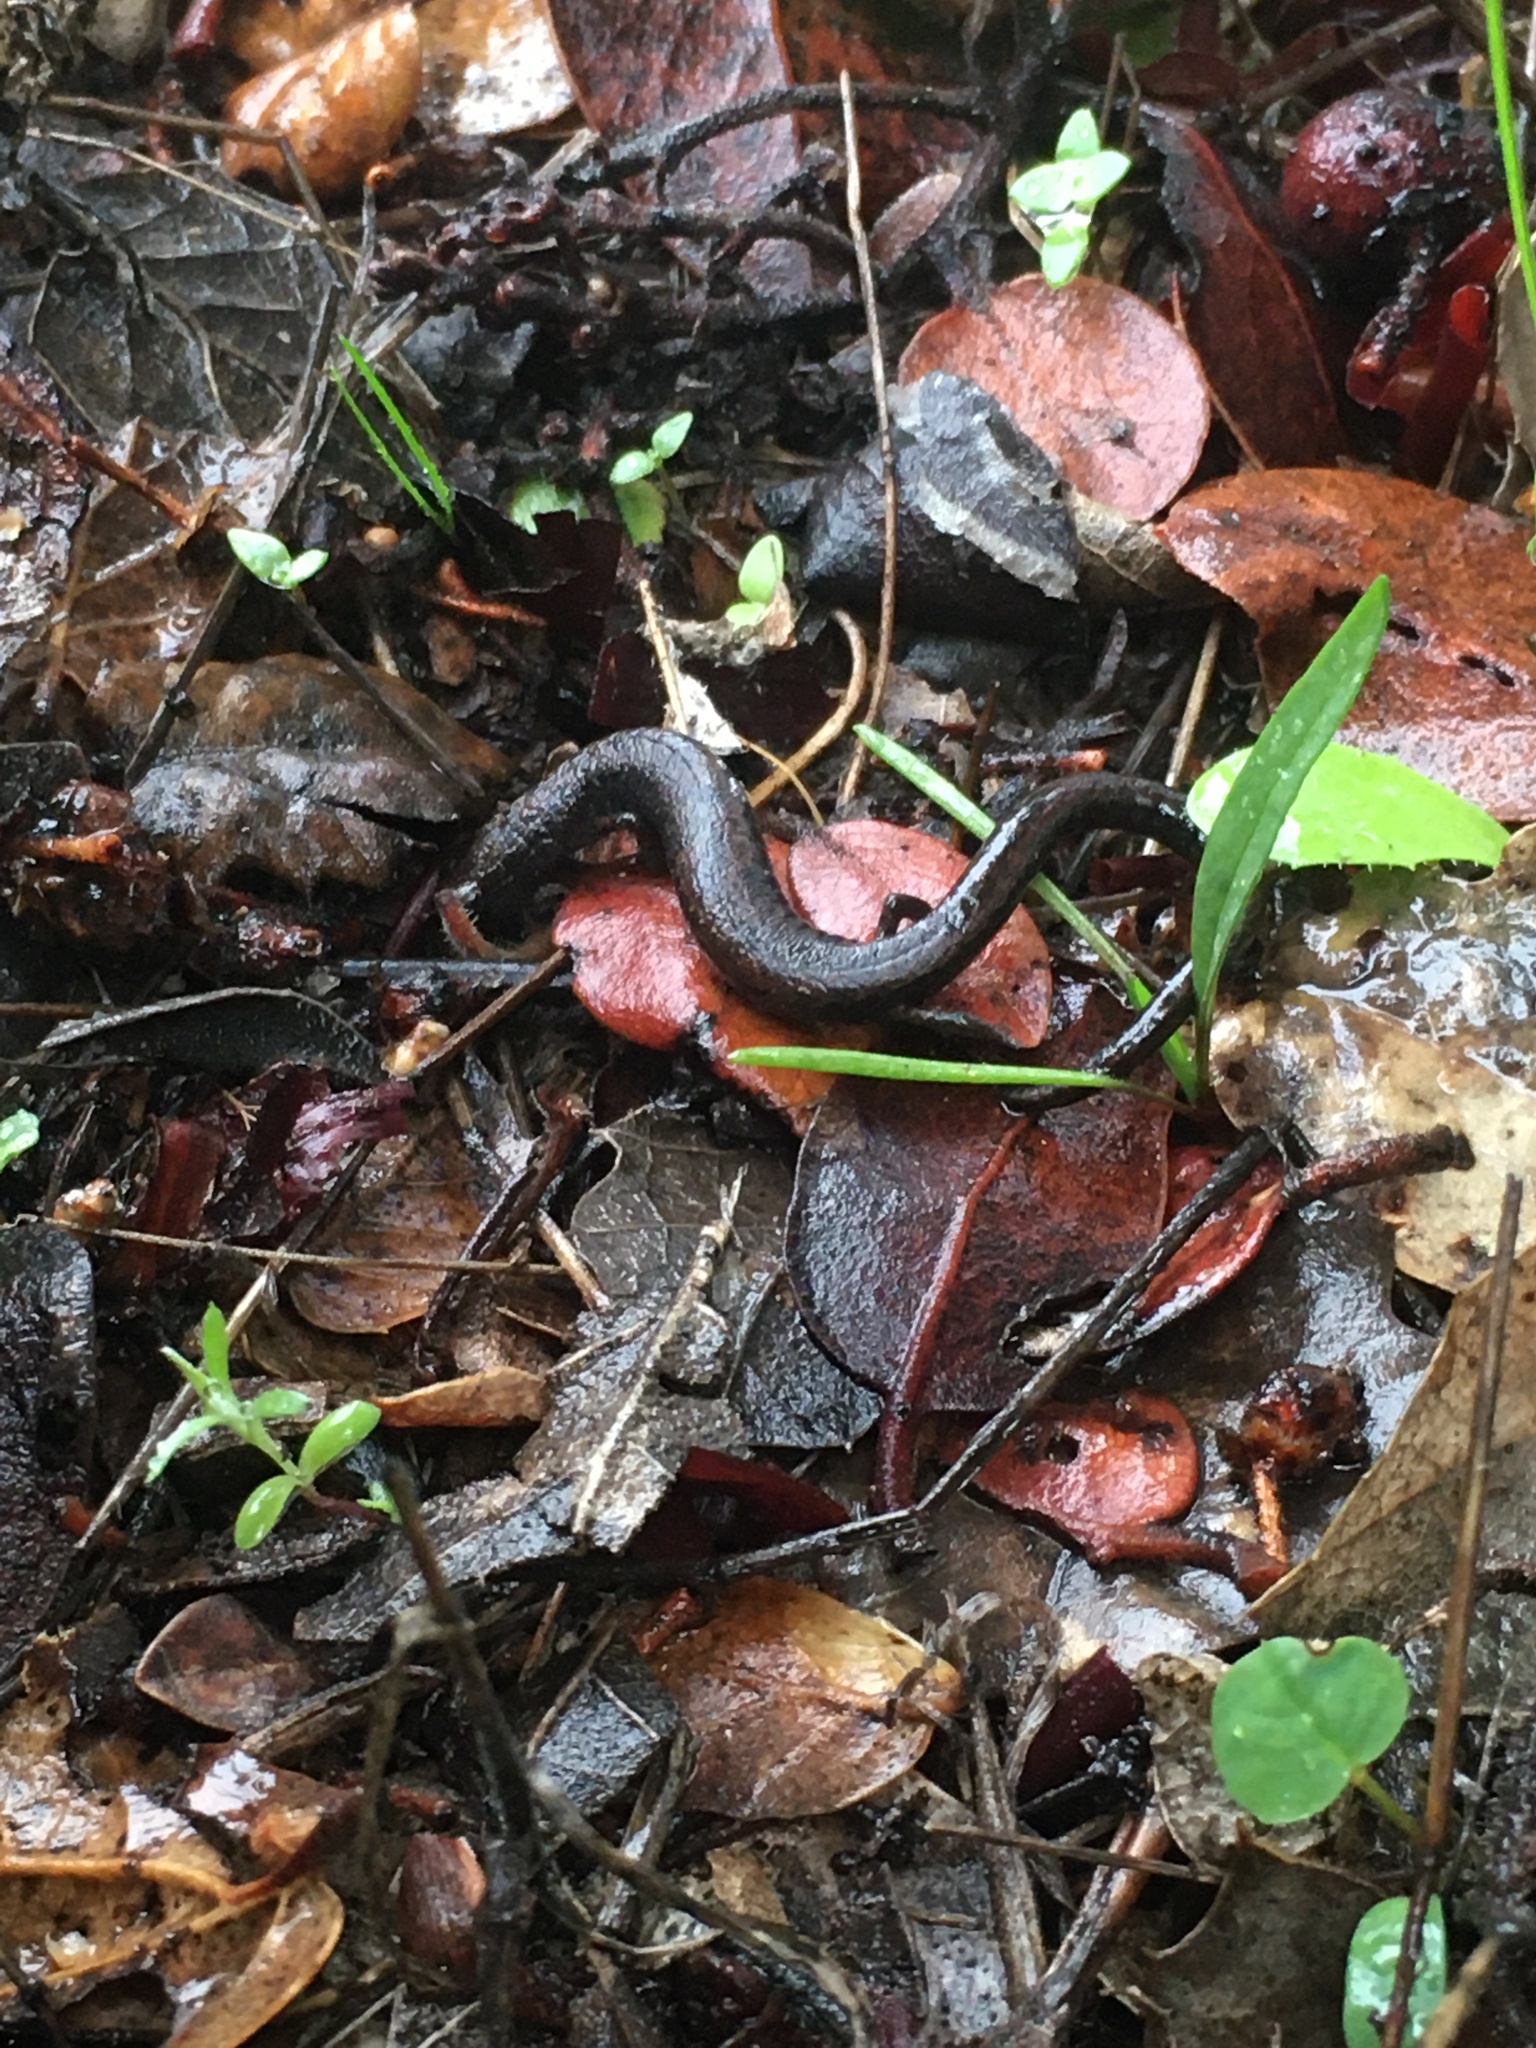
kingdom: Animalia
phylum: Chordata
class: Amphibia
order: Caudata
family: Plethodontidae
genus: Batrachoseps
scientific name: Batrachoseps nigriventris
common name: Black-bellied slender salamander
